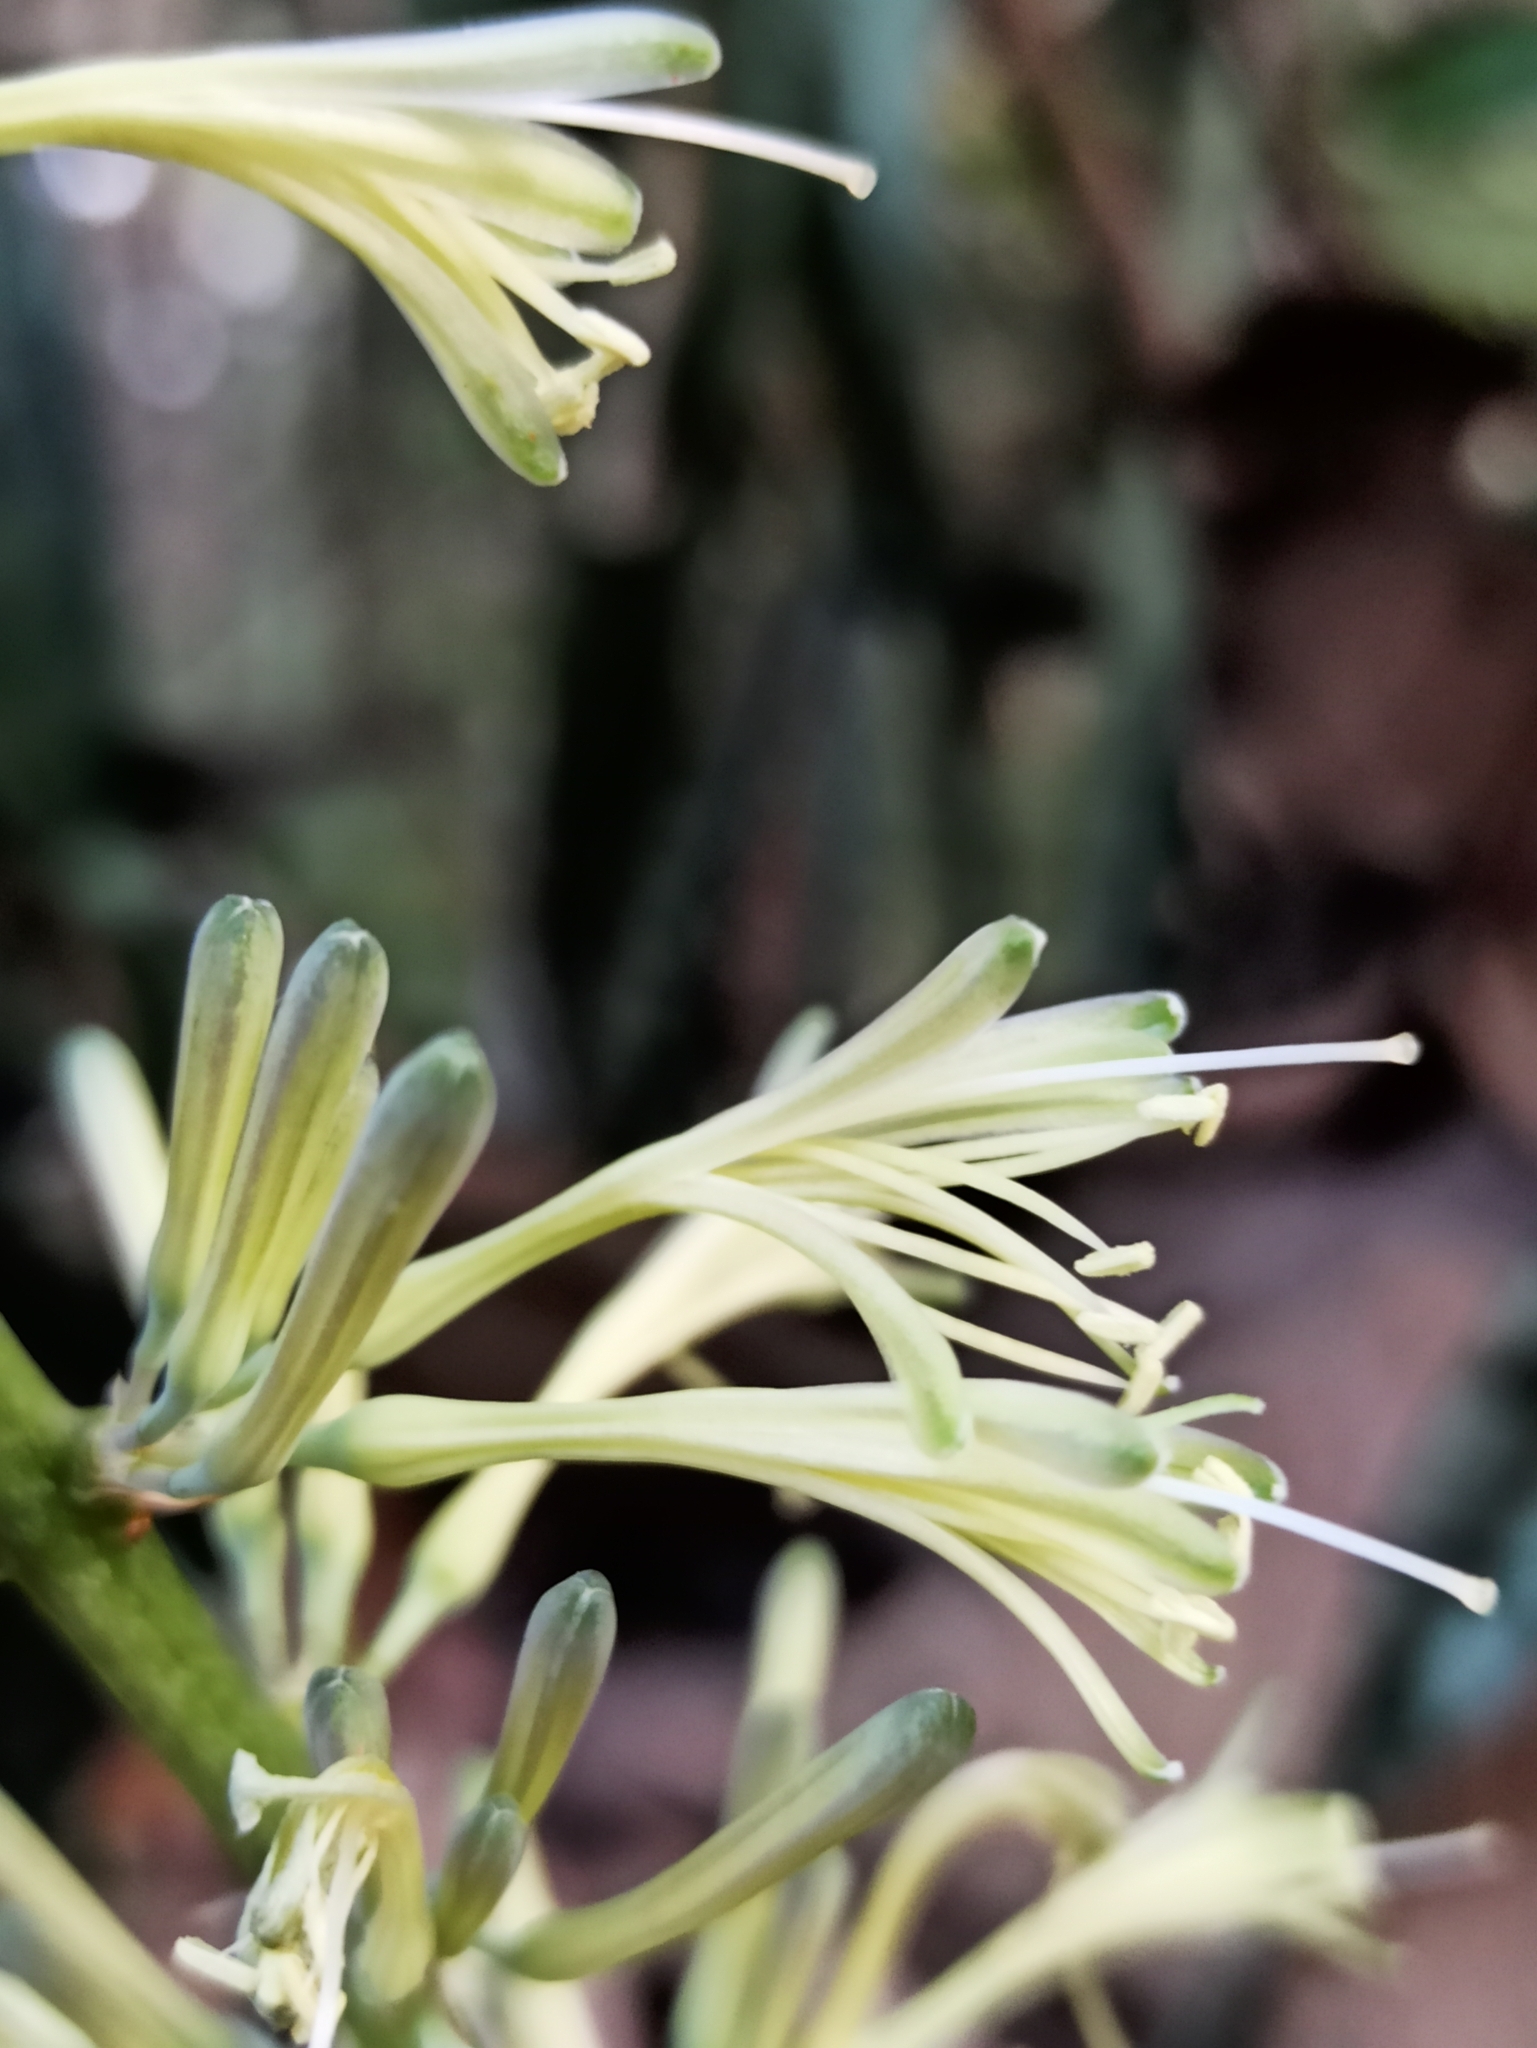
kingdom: Plantae
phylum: Tracheophyta
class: Liliopsida
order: Asparagales
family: Asparagaceae
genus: Dracaena
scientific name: Dracaena trifasciata
